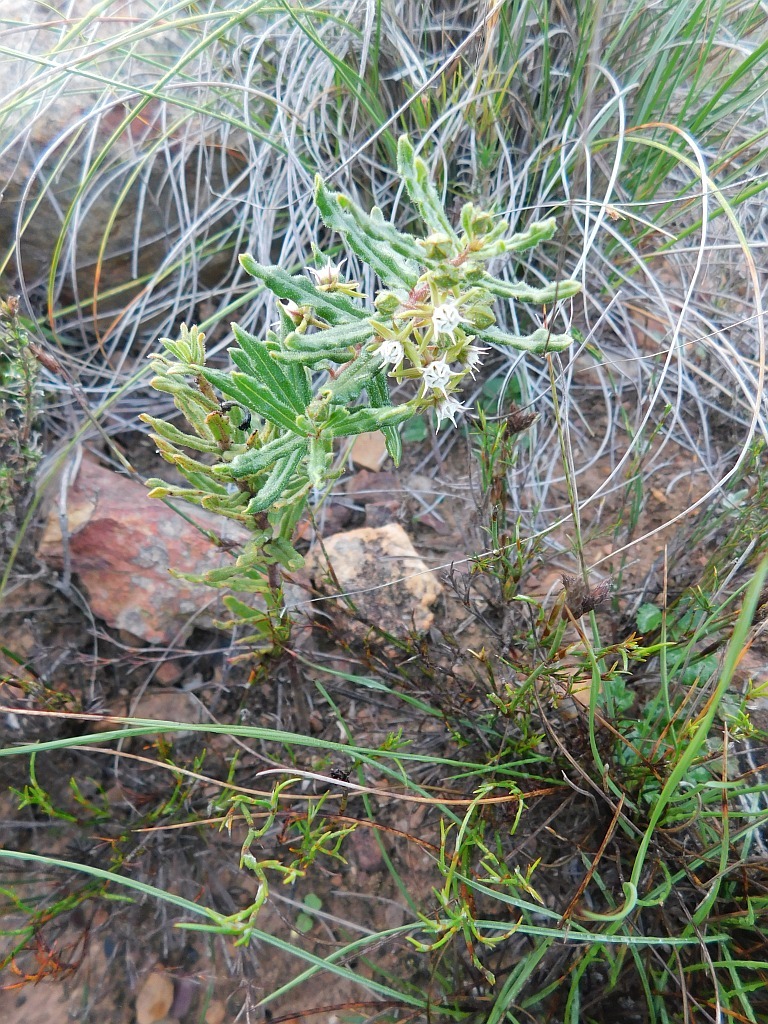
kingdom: Plantae
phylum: Tracheophyta
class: Magnoliopsida
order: Gentianales
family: Apocynaceae
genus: Aspidoglossum
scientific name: Aspidoglossum heterophyllum
